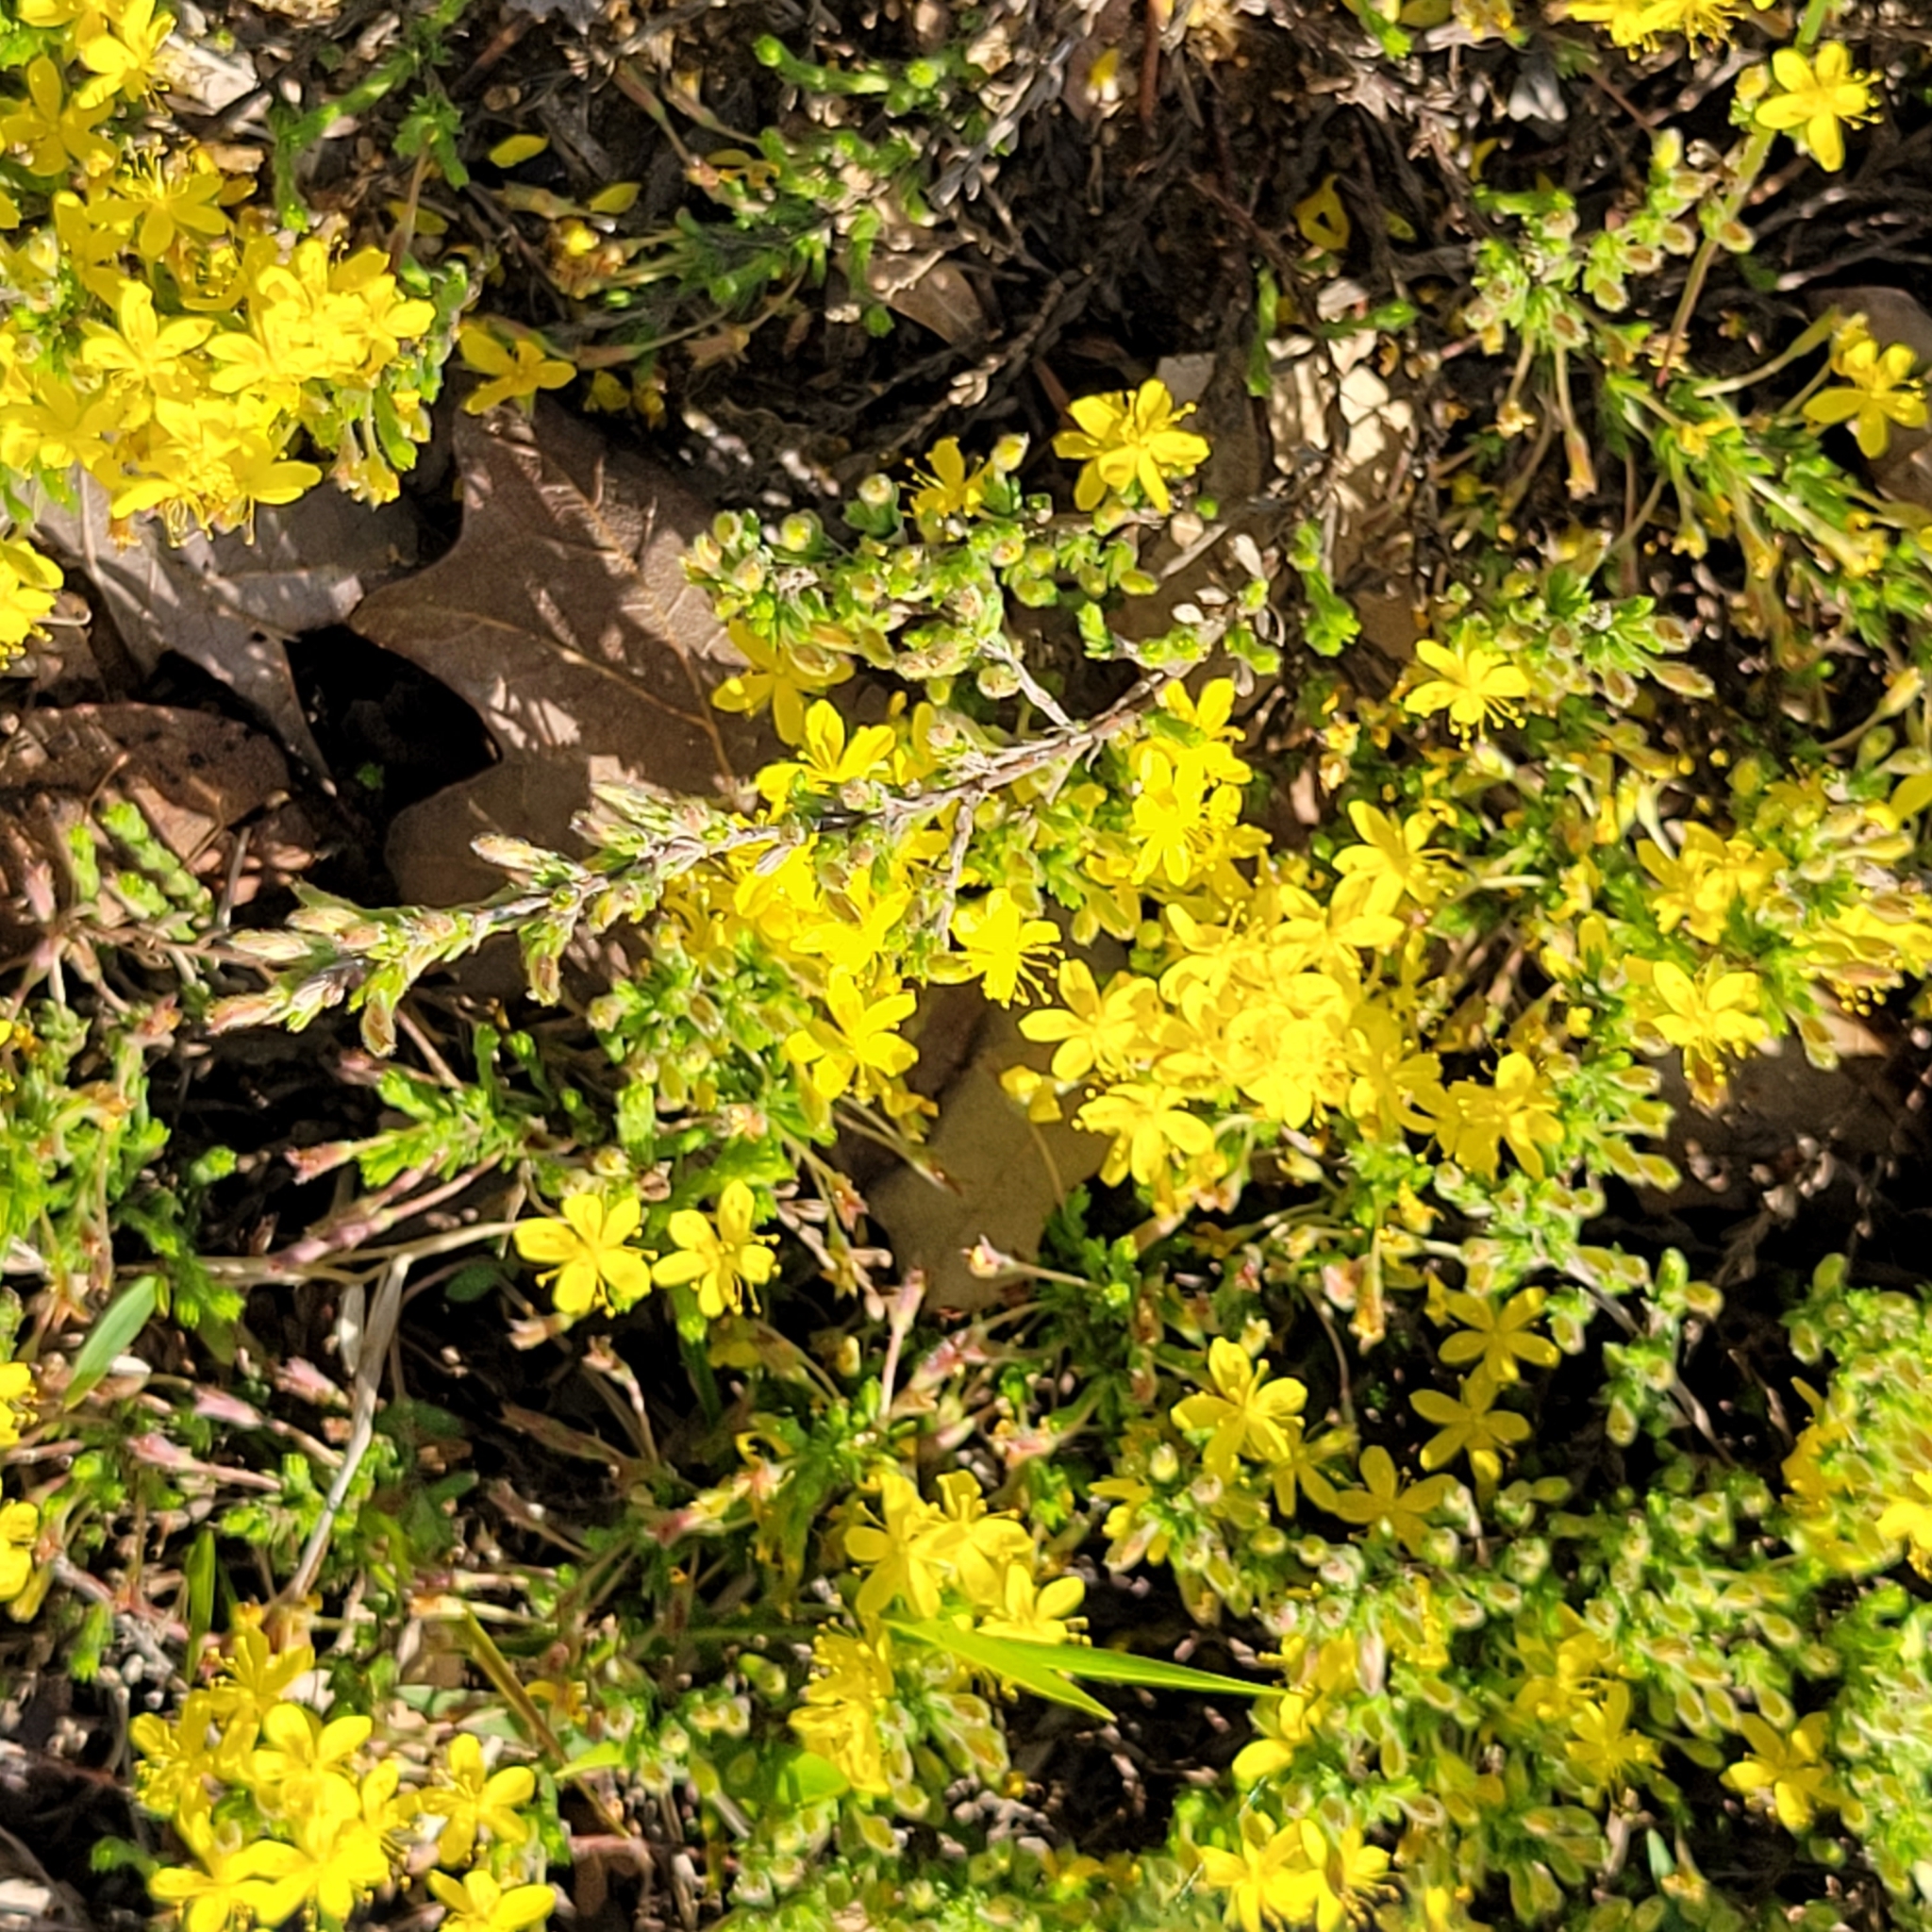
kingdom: Plantae
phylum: Tracheophyta
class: Magnoliopsida
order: Malvales
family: Cistaceae
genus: Hudsonia
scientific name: Hudsonia ericoides
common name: Golden-heather
